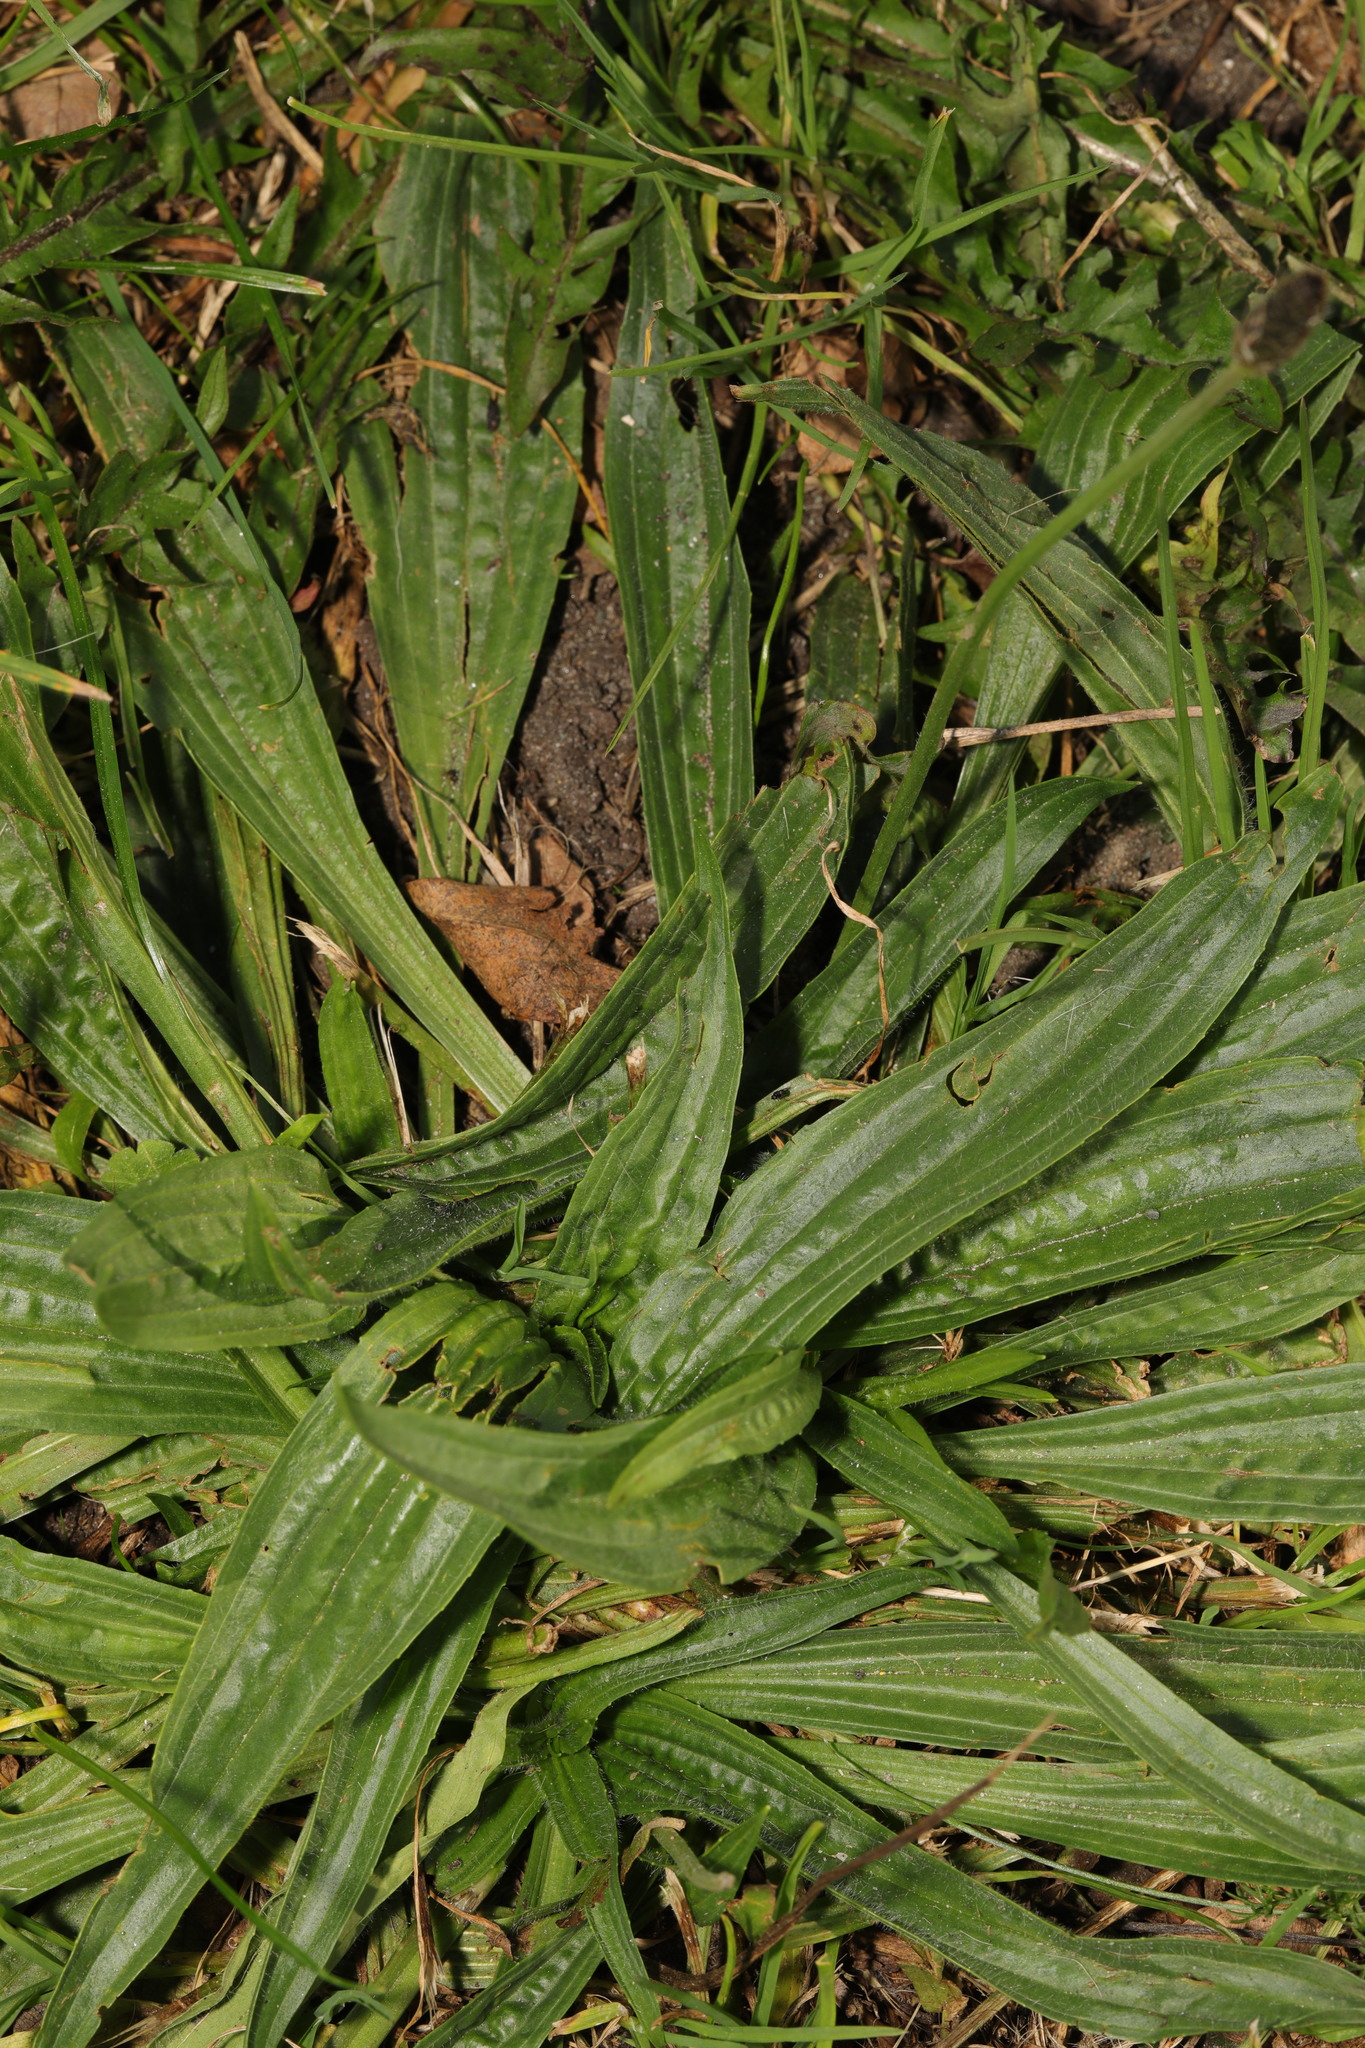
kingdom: Plantae
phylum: Tracheophyta
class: Magnoliopsida
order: Lamiales
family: Plantaginaceae
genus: Plantago
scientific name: Plantago lanceolata
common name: Ribwort plantain
